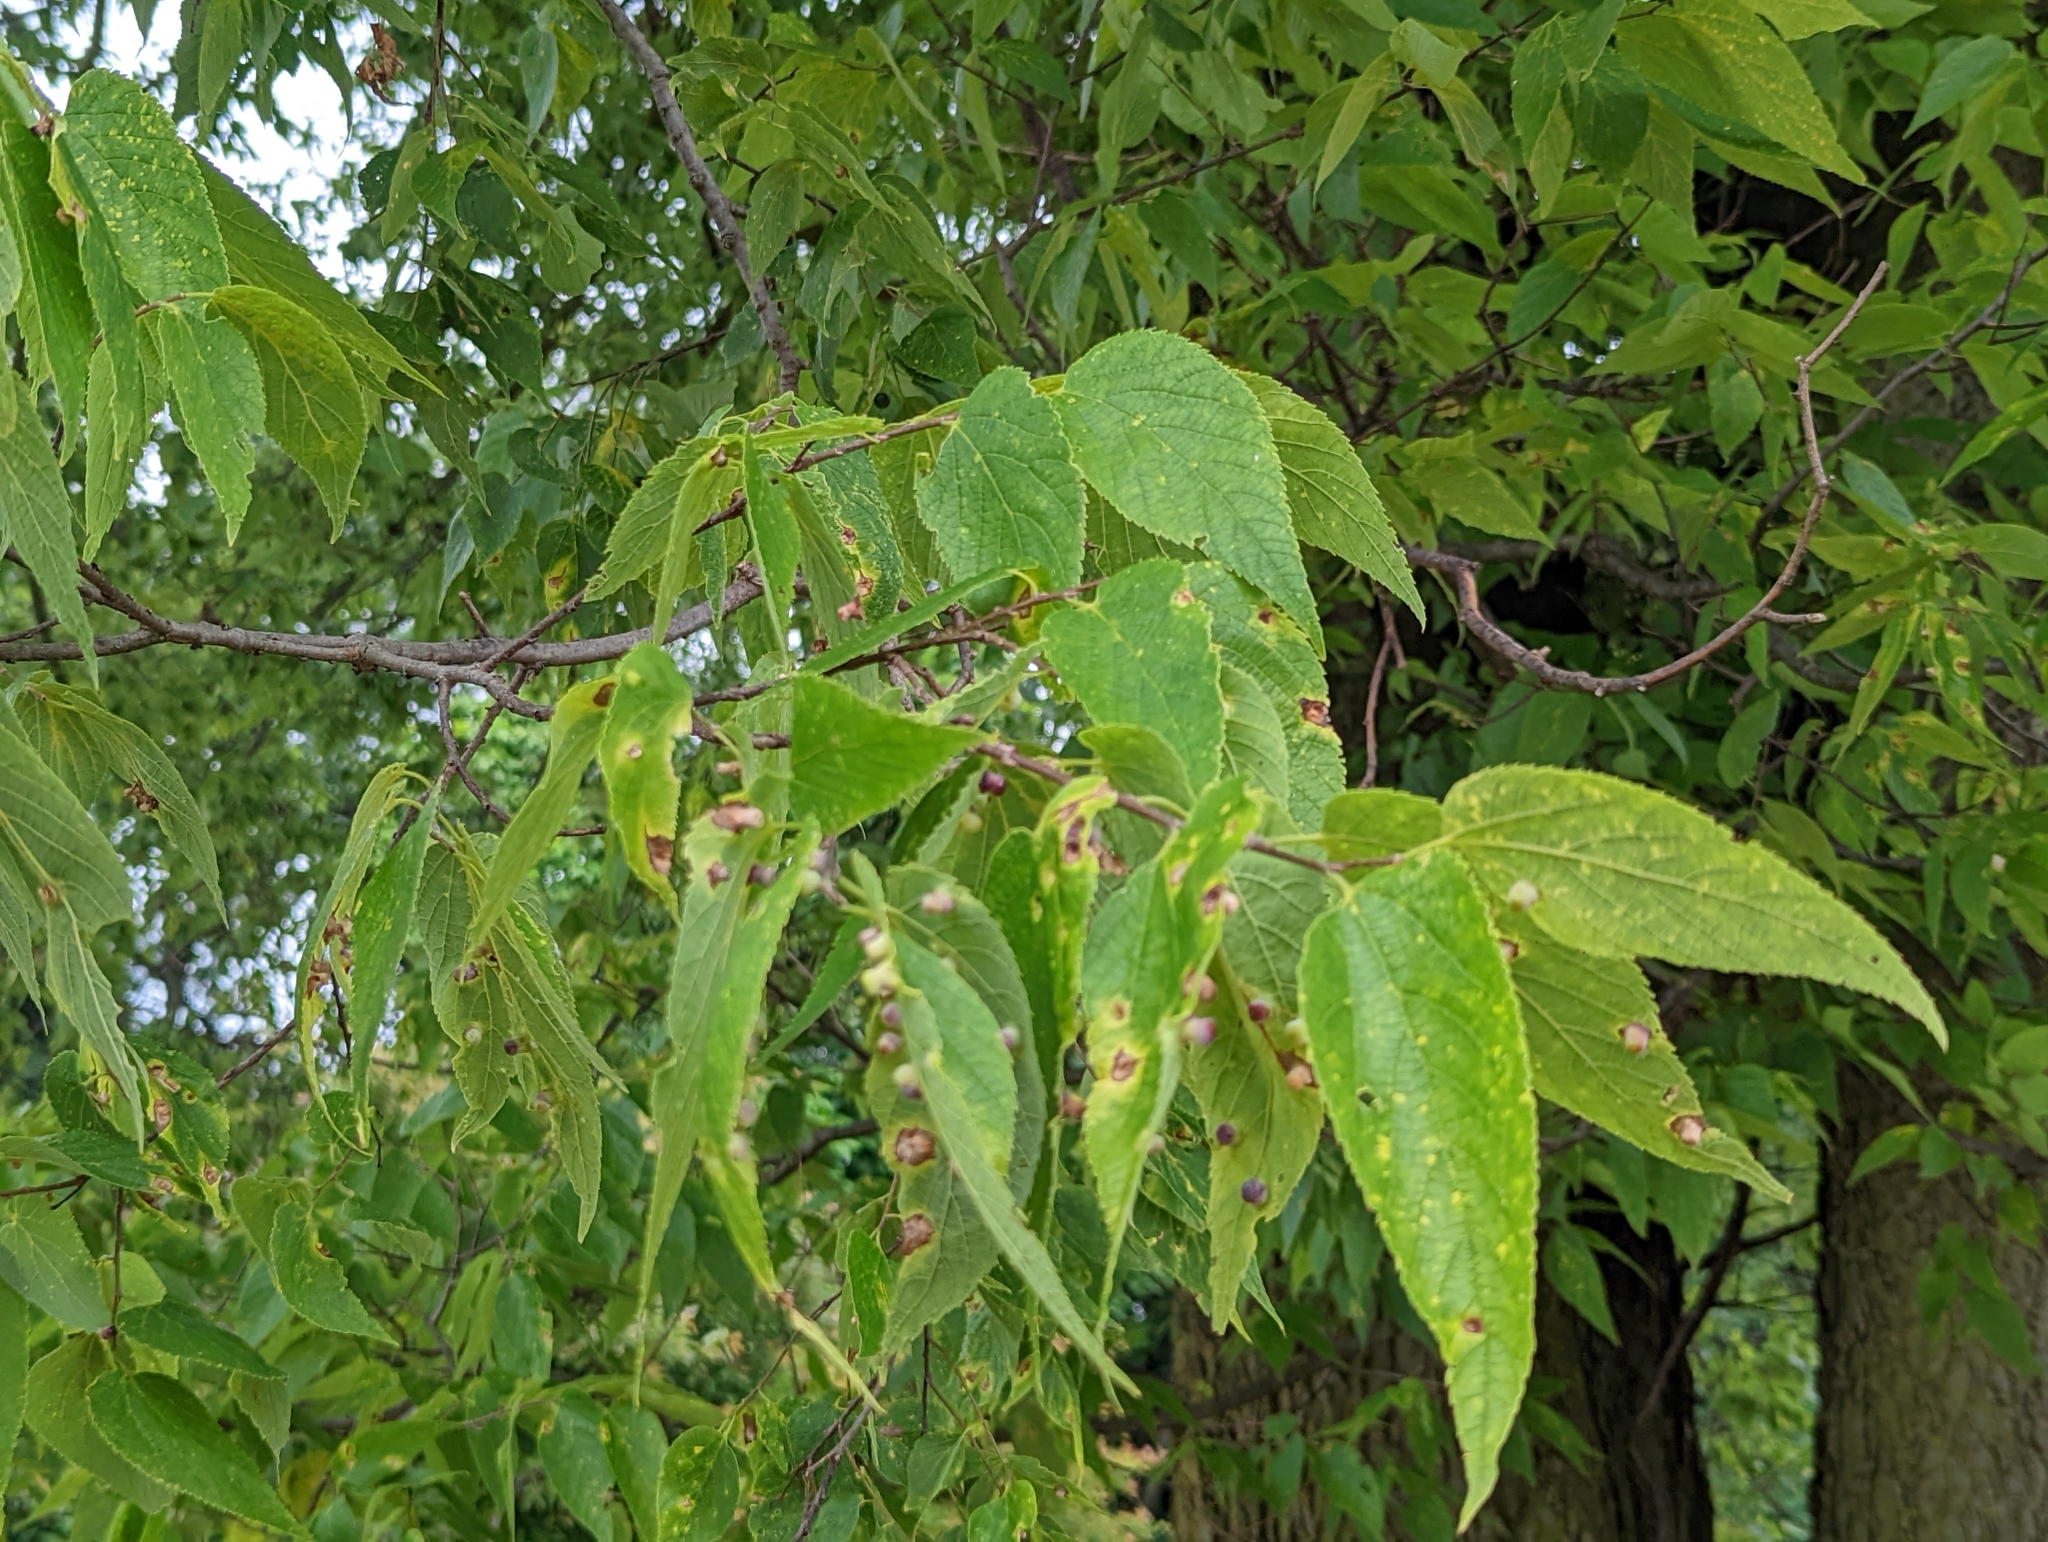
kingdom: Animalia
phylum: Arthropoda
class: Insecta
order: Hemiptera
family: Aphalaridae
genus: Pachypsylla
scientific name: Pachypsylla celtidismamma
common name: Hackberry nipplegall psyllid
